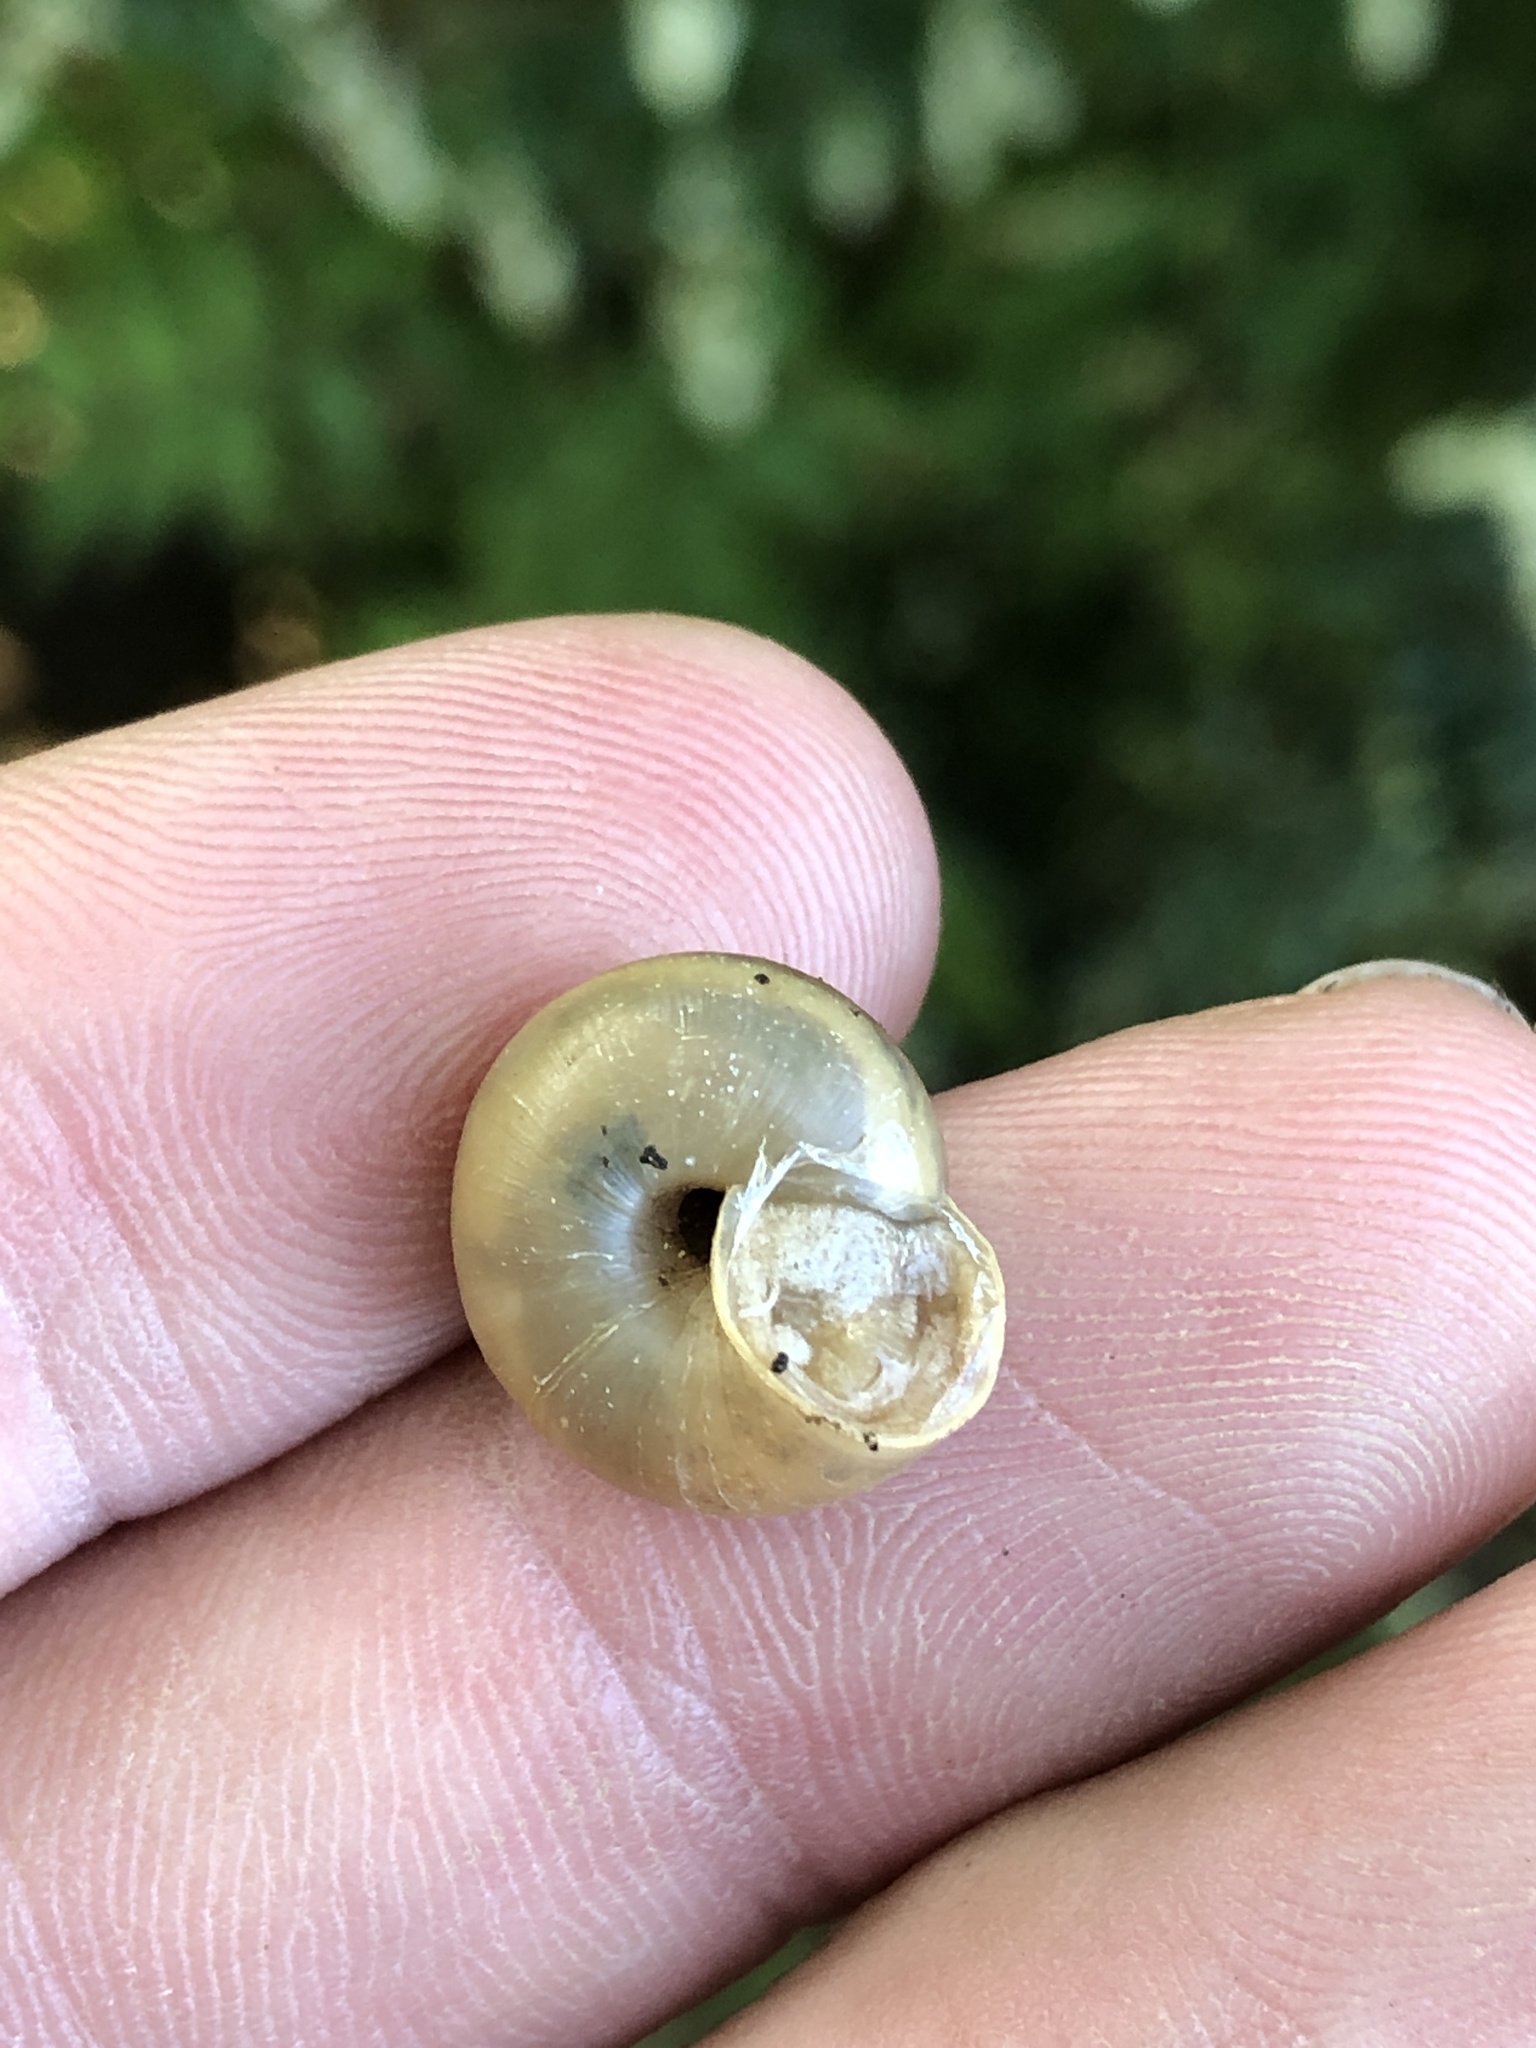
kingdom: Animalia
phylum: Mollusca
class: Gastropoda
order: Stylommatophora
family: Camaenidae
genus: Bradybaena
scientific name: Bradybaena similaris
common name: Asian trampsnail
